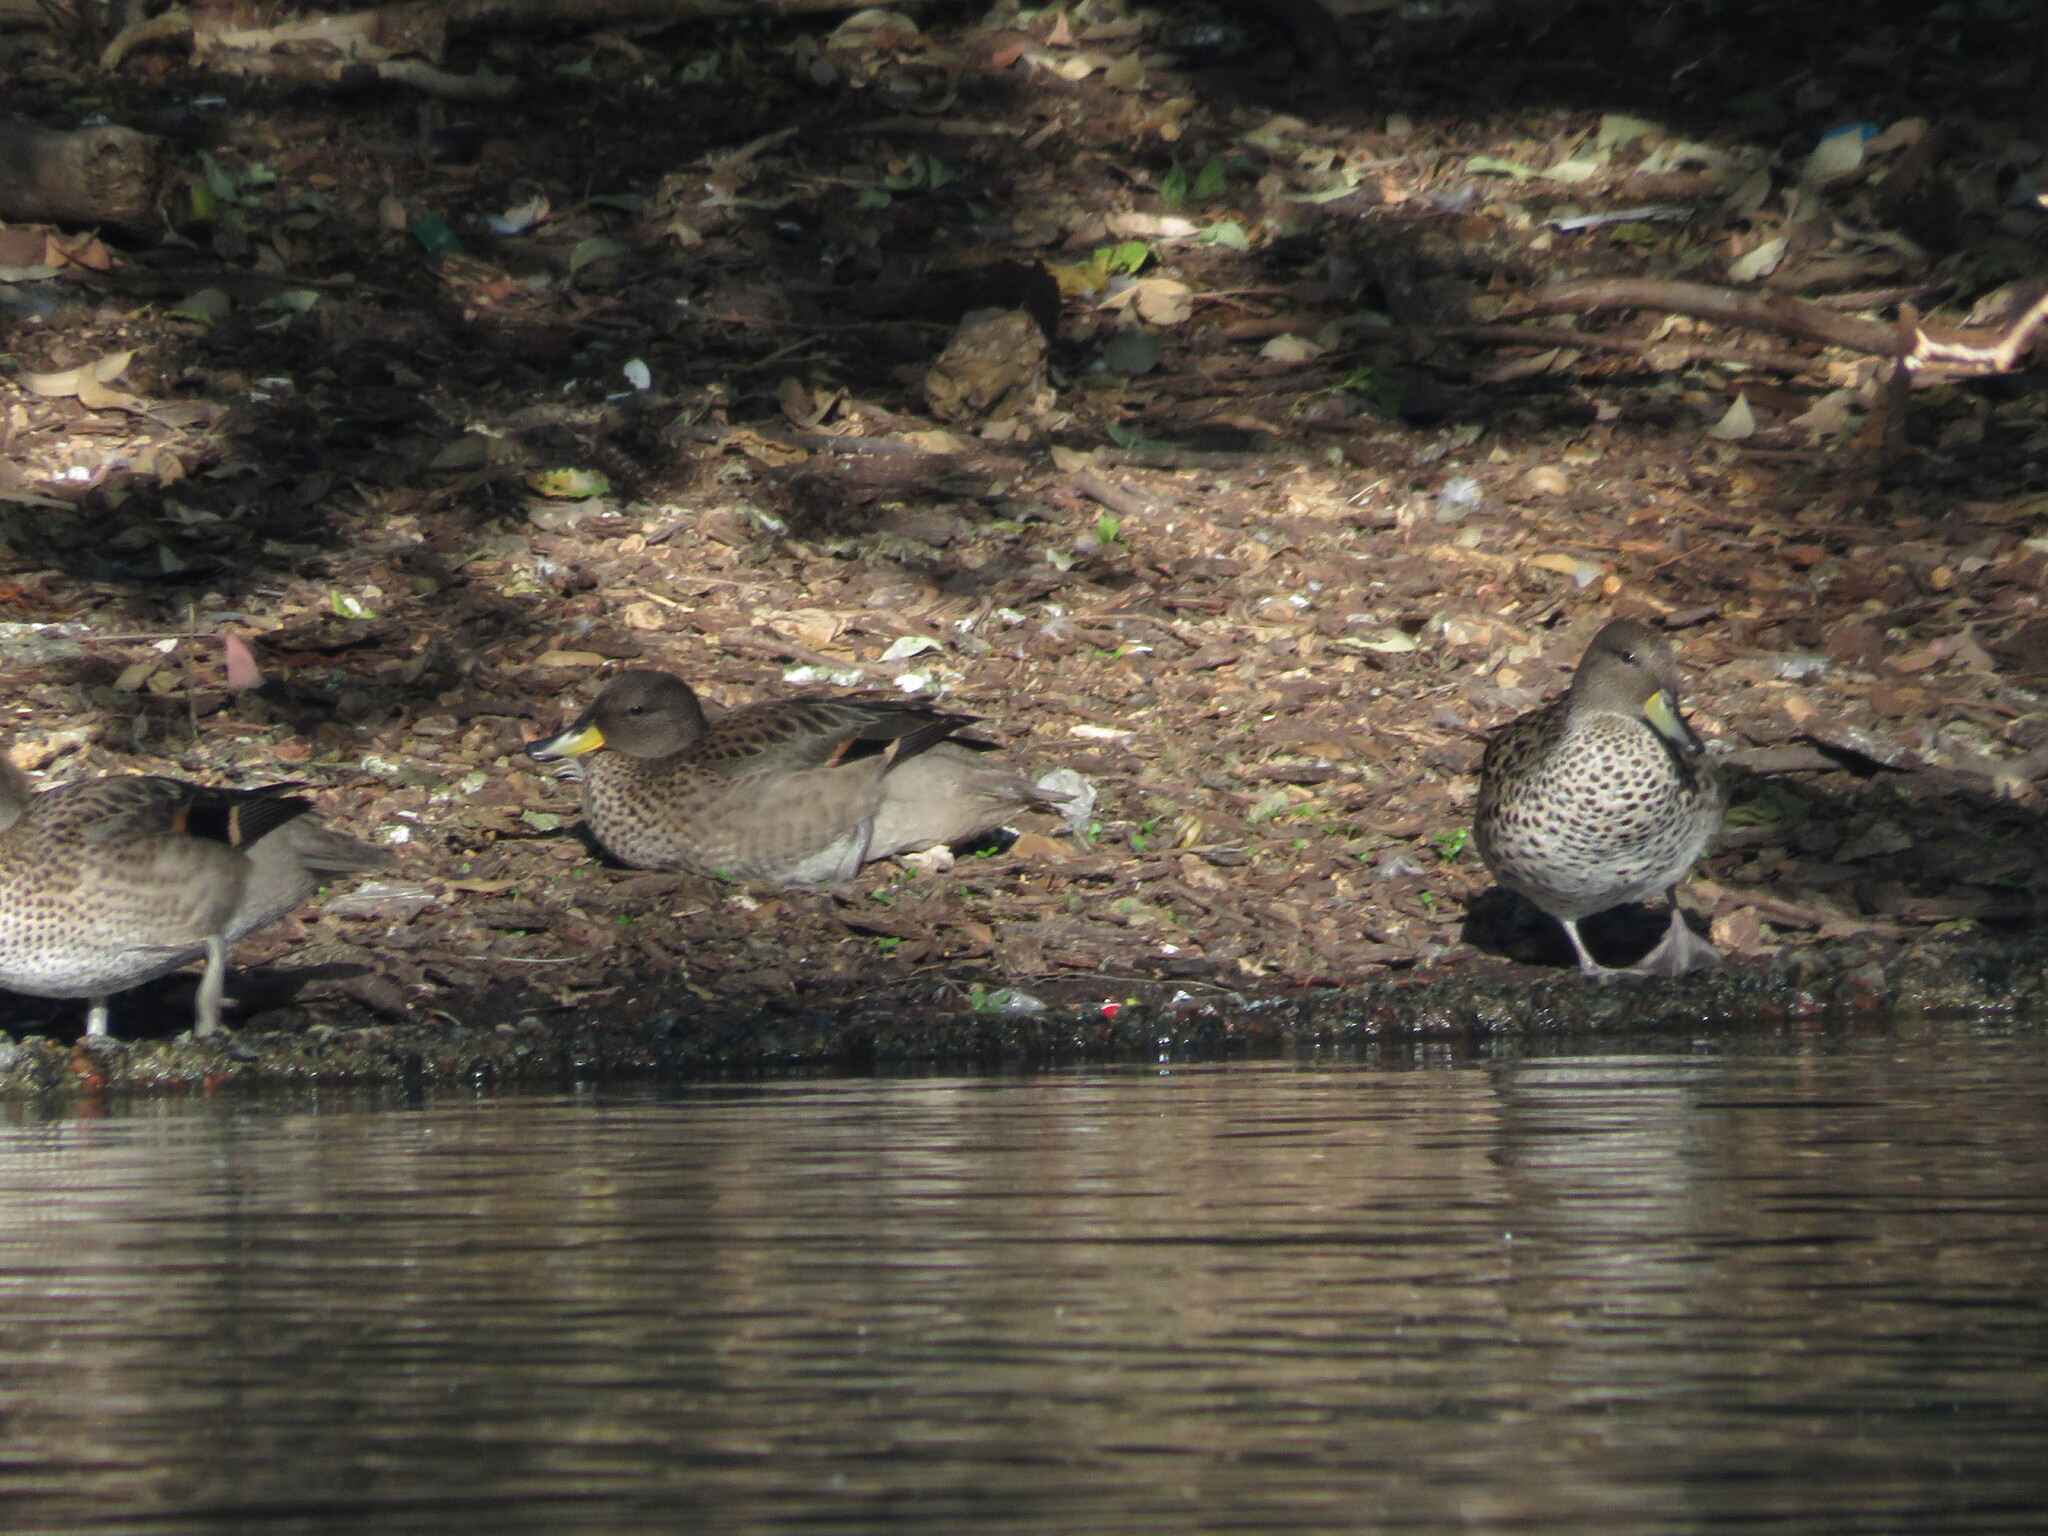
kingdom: Animalia
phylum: Chordata
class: Aves
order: Anseriformes
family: Anatidae
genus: Anas
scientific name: Anas flavirostris
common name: Yellow-billed teal
